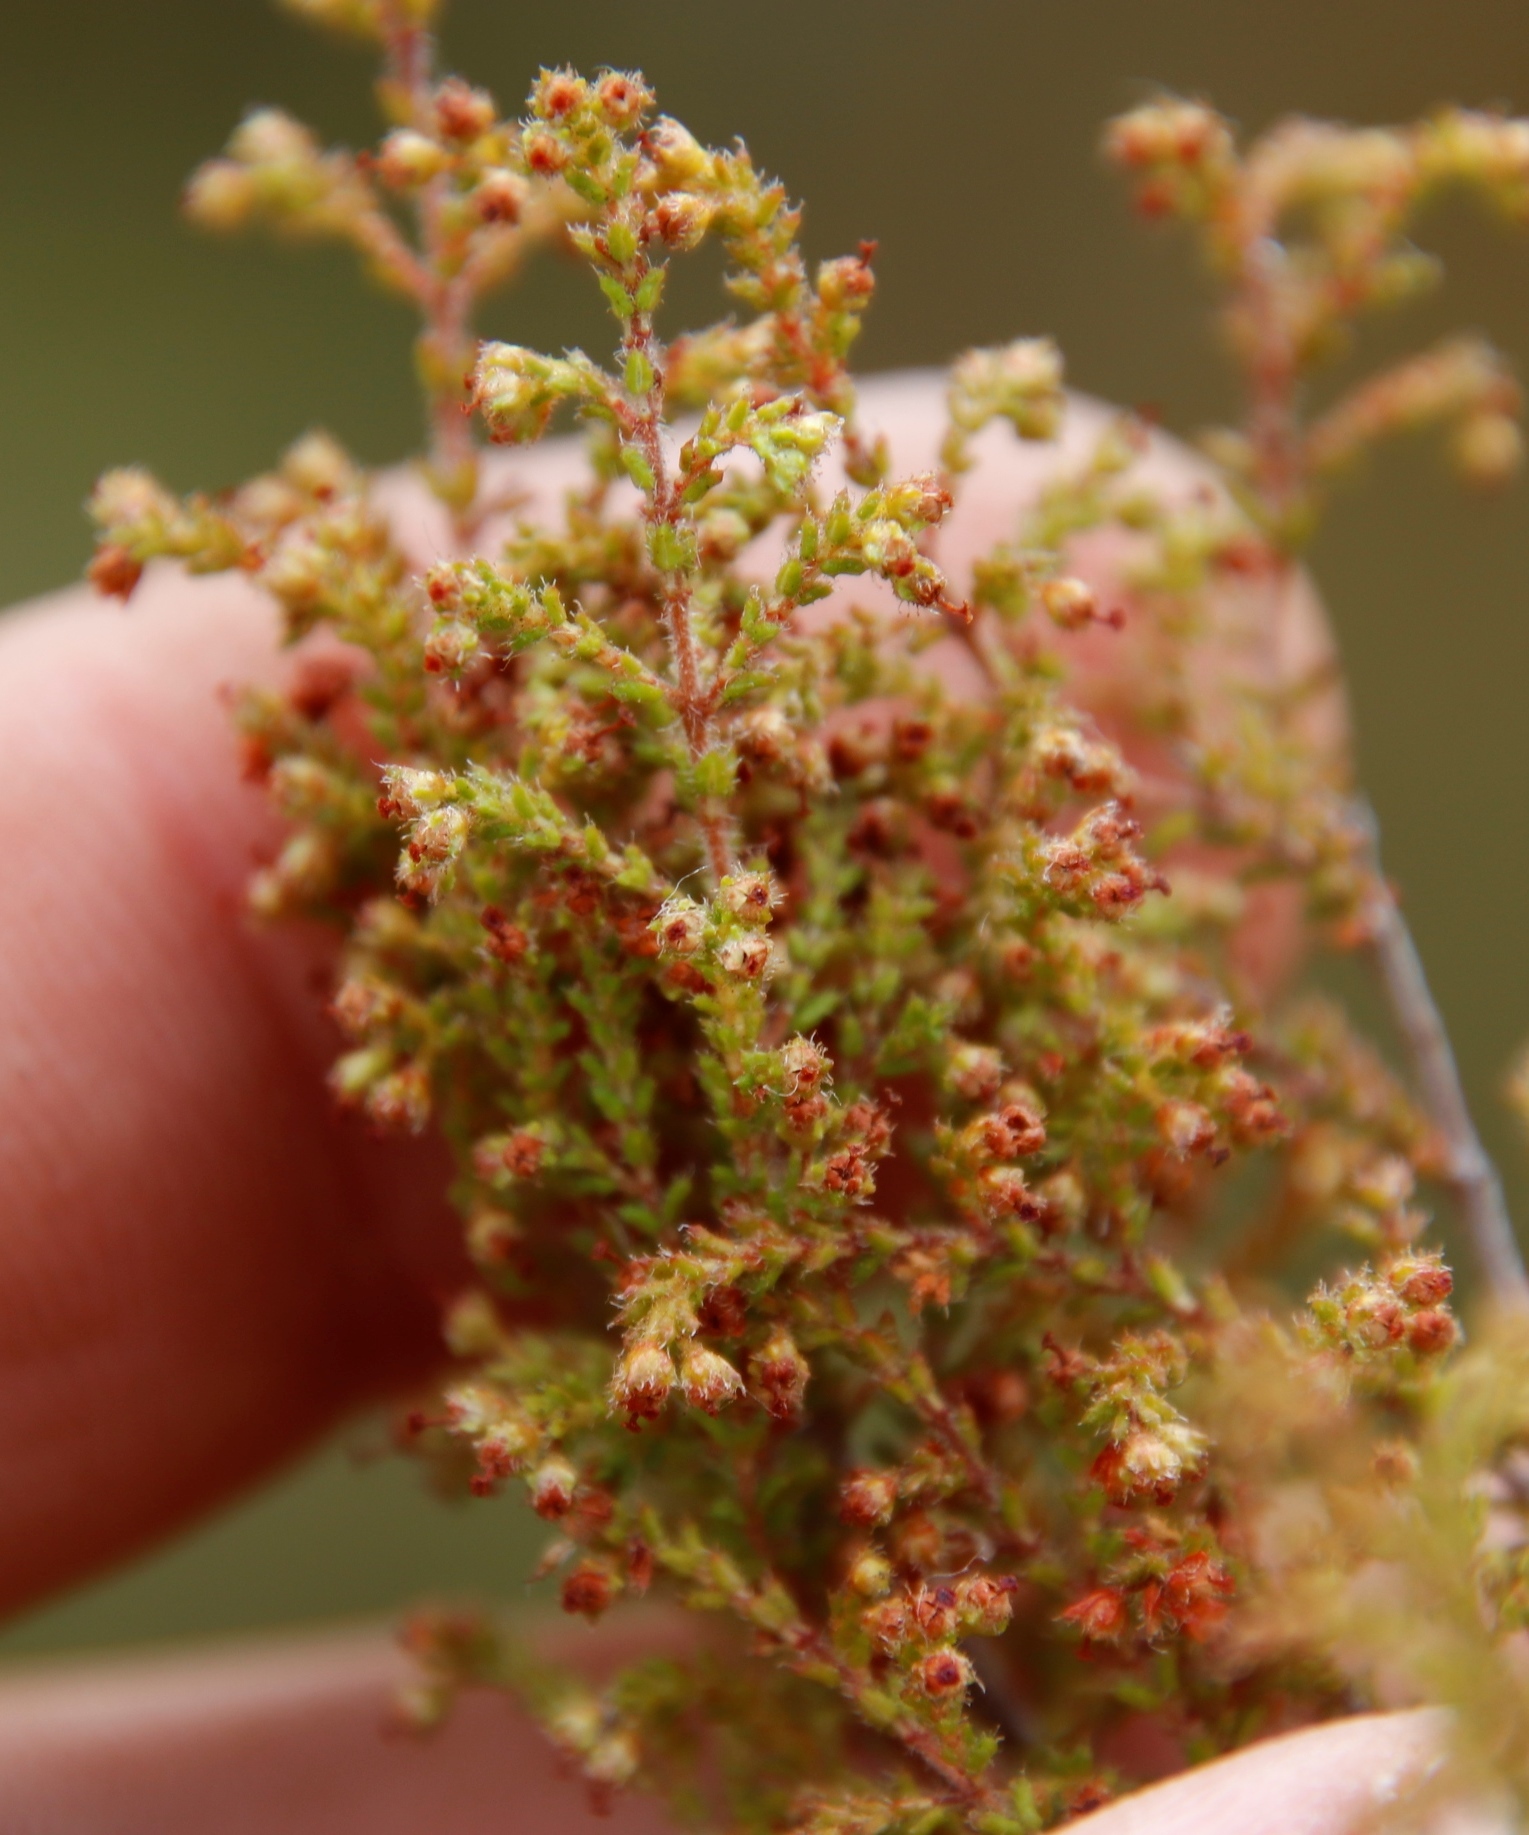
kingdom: Plantae
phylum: Tracheophyta
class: Magnoliopsida
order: Ericales
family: Ericaceae
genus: Erica
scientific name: Erica exleeana
